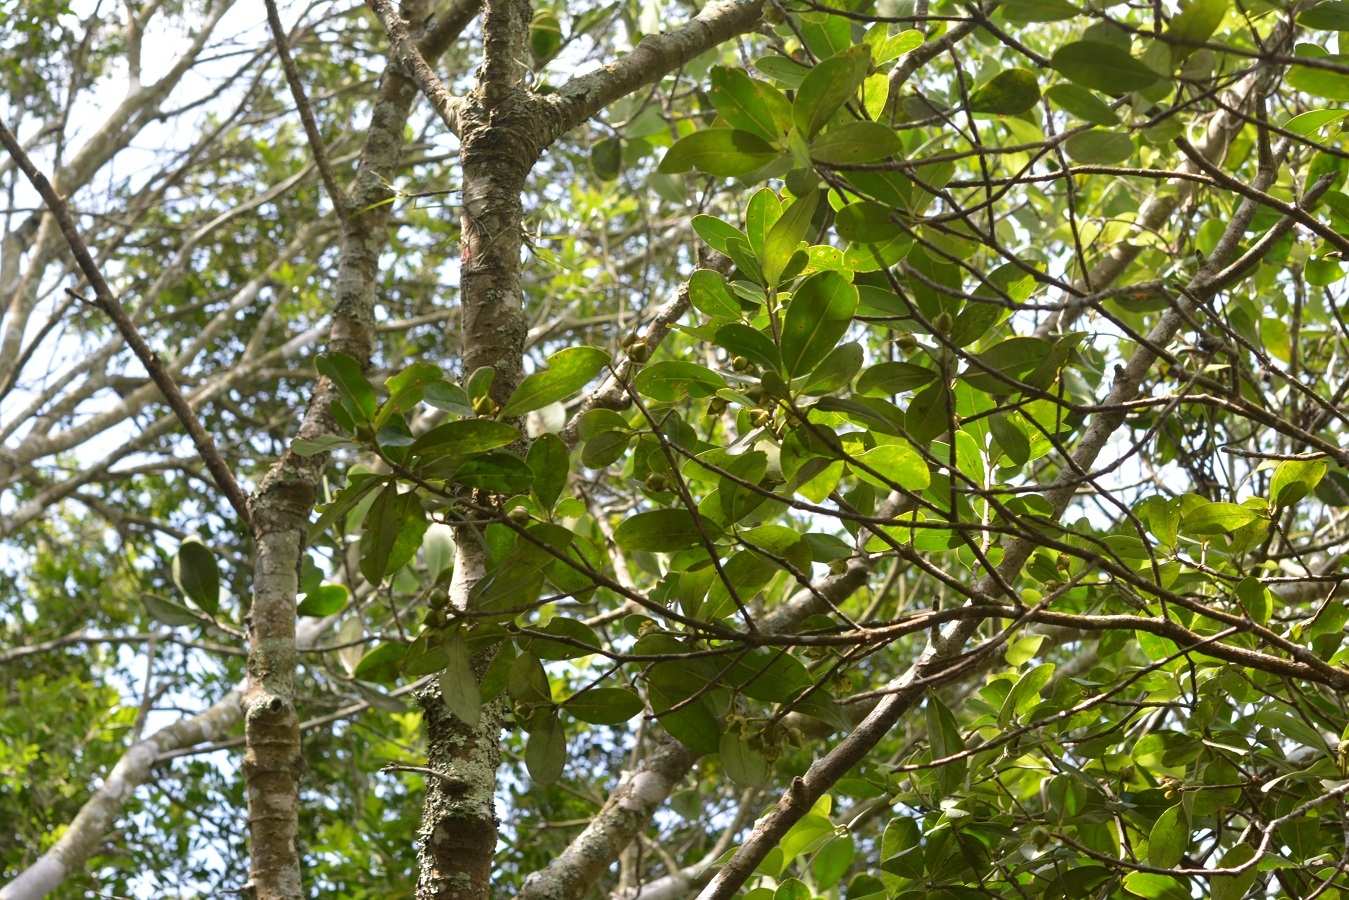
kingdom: Plantae
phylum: Tracheophyta
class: Magnoliopsida
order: Ericales
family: Pentaphylacaceae
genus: Ternstroemia
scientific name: Ternstroemia tepezapote
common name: Copey vera
